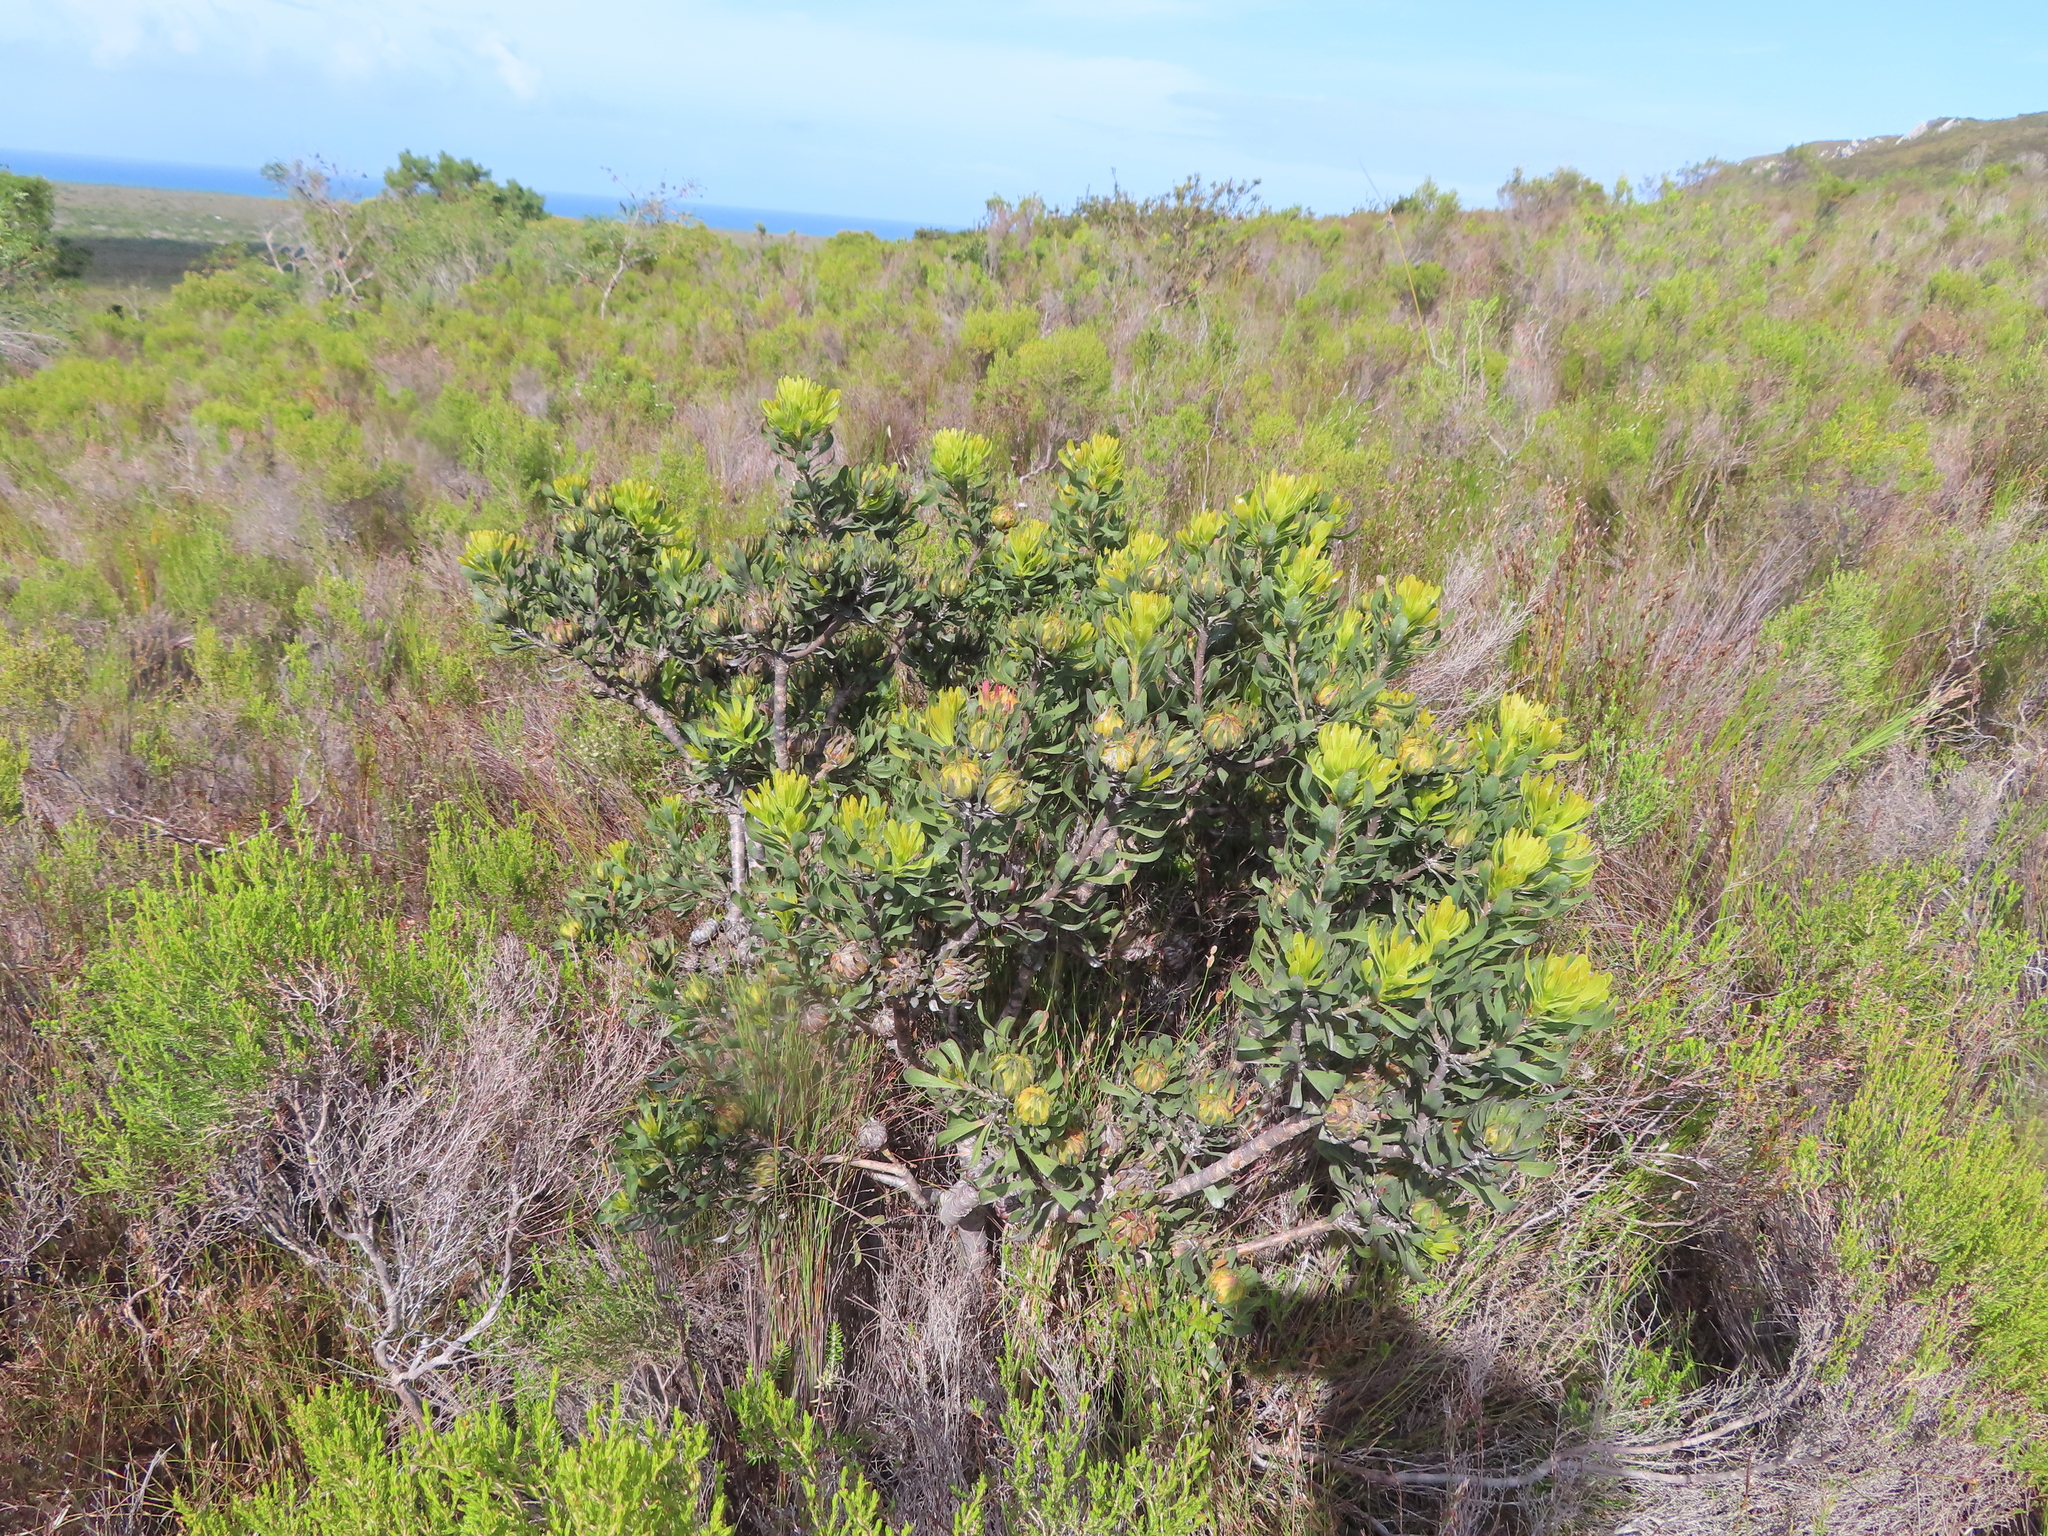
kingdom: Plantae
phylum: Tracheophyta
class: Magnoliopsida
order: Proteales
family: Proteaceae
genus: Aulax
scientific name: Aulax umbellata
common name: Broad-leaf featherbush
